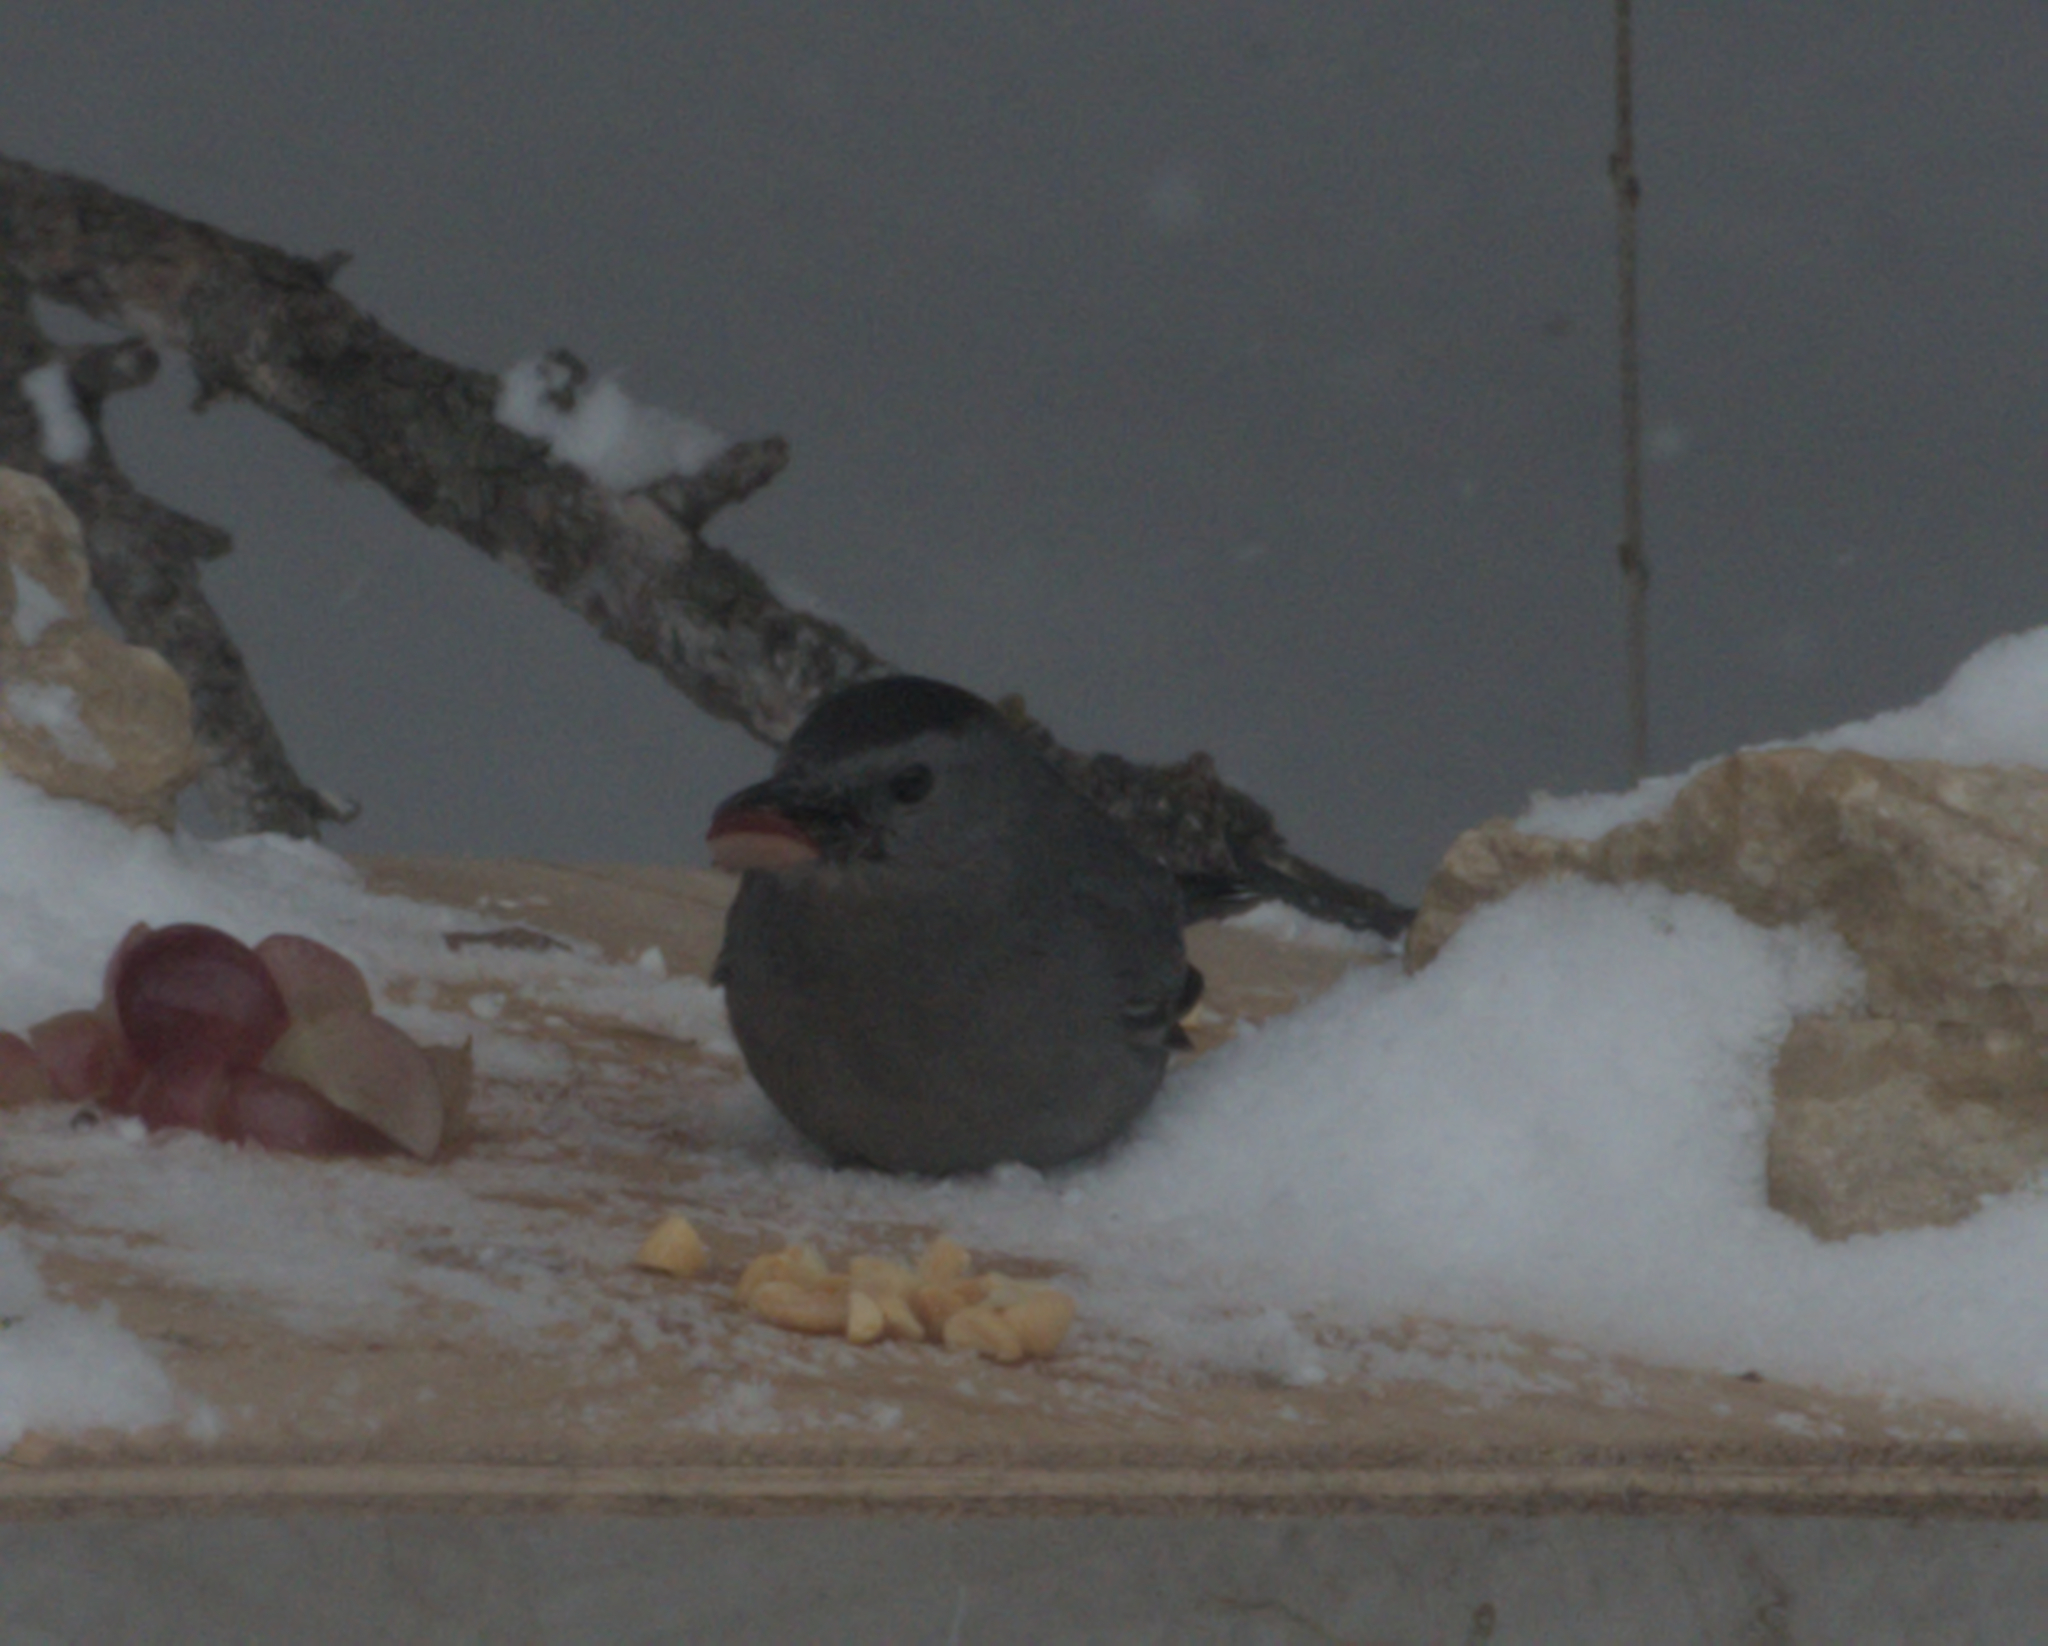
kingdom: Animalia
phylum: Chordata
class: Aves
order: Passeriformes
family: Mimidae
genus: Dumetella
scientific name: Dumetella carolinensis
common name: Gray catbird
